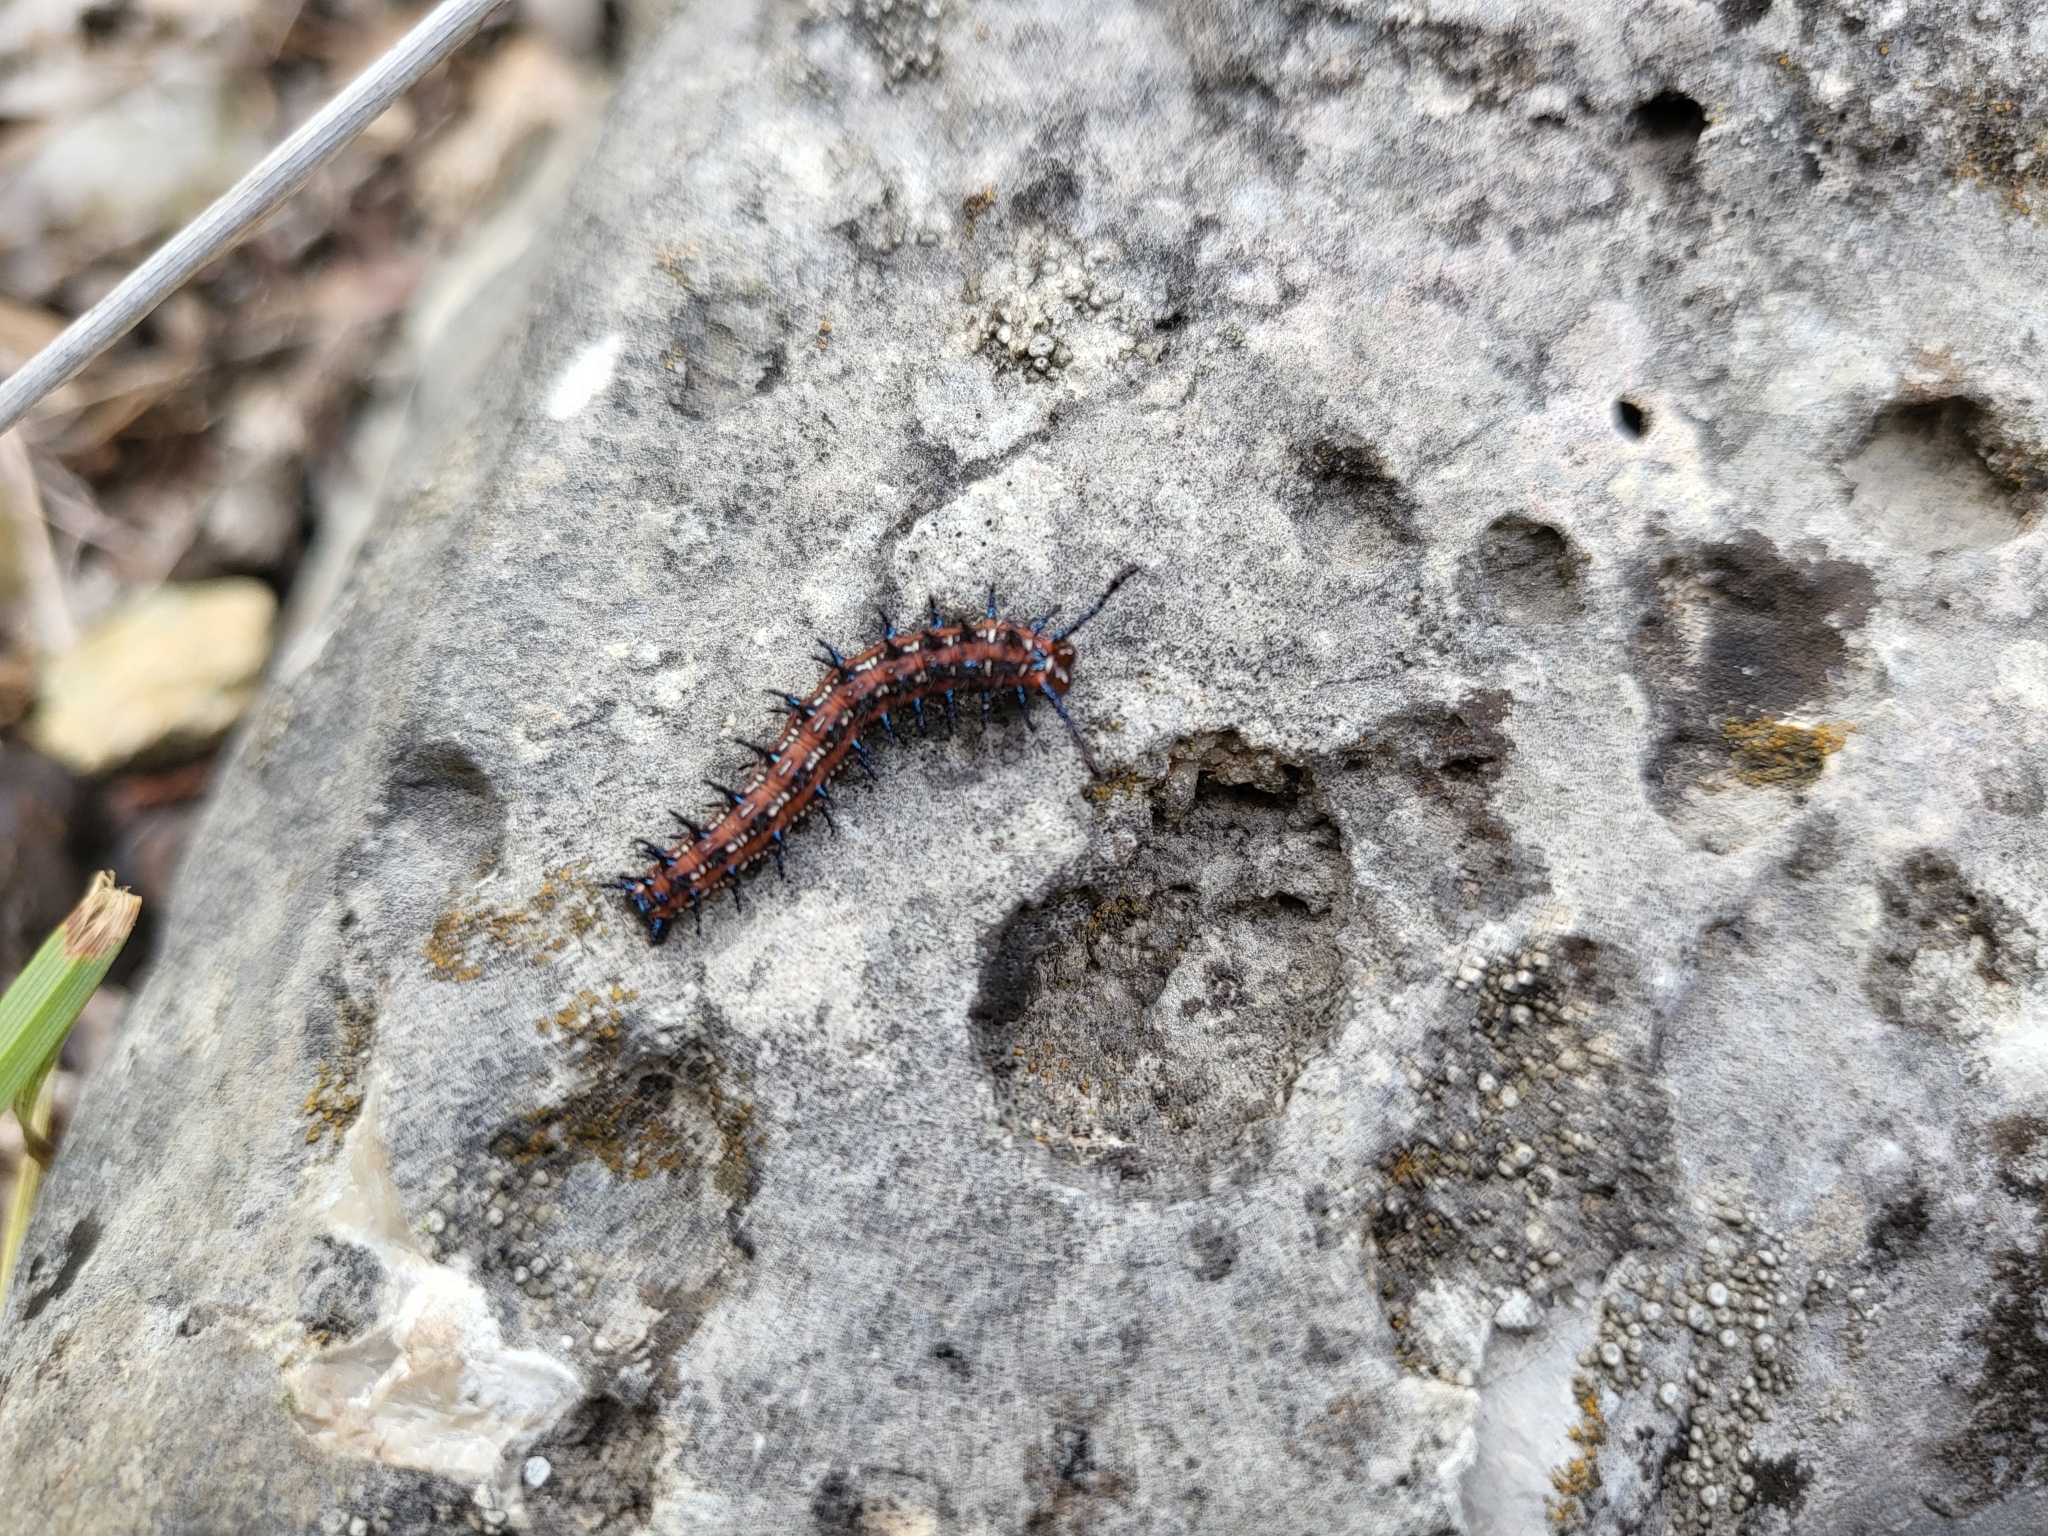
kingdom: Animalia
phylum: Arthropoda
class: Insecta
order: Lepidoptera
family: Nymphalidae
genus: Euptoieta
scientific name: Euptoieta claudia
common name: Variegated fritillary
